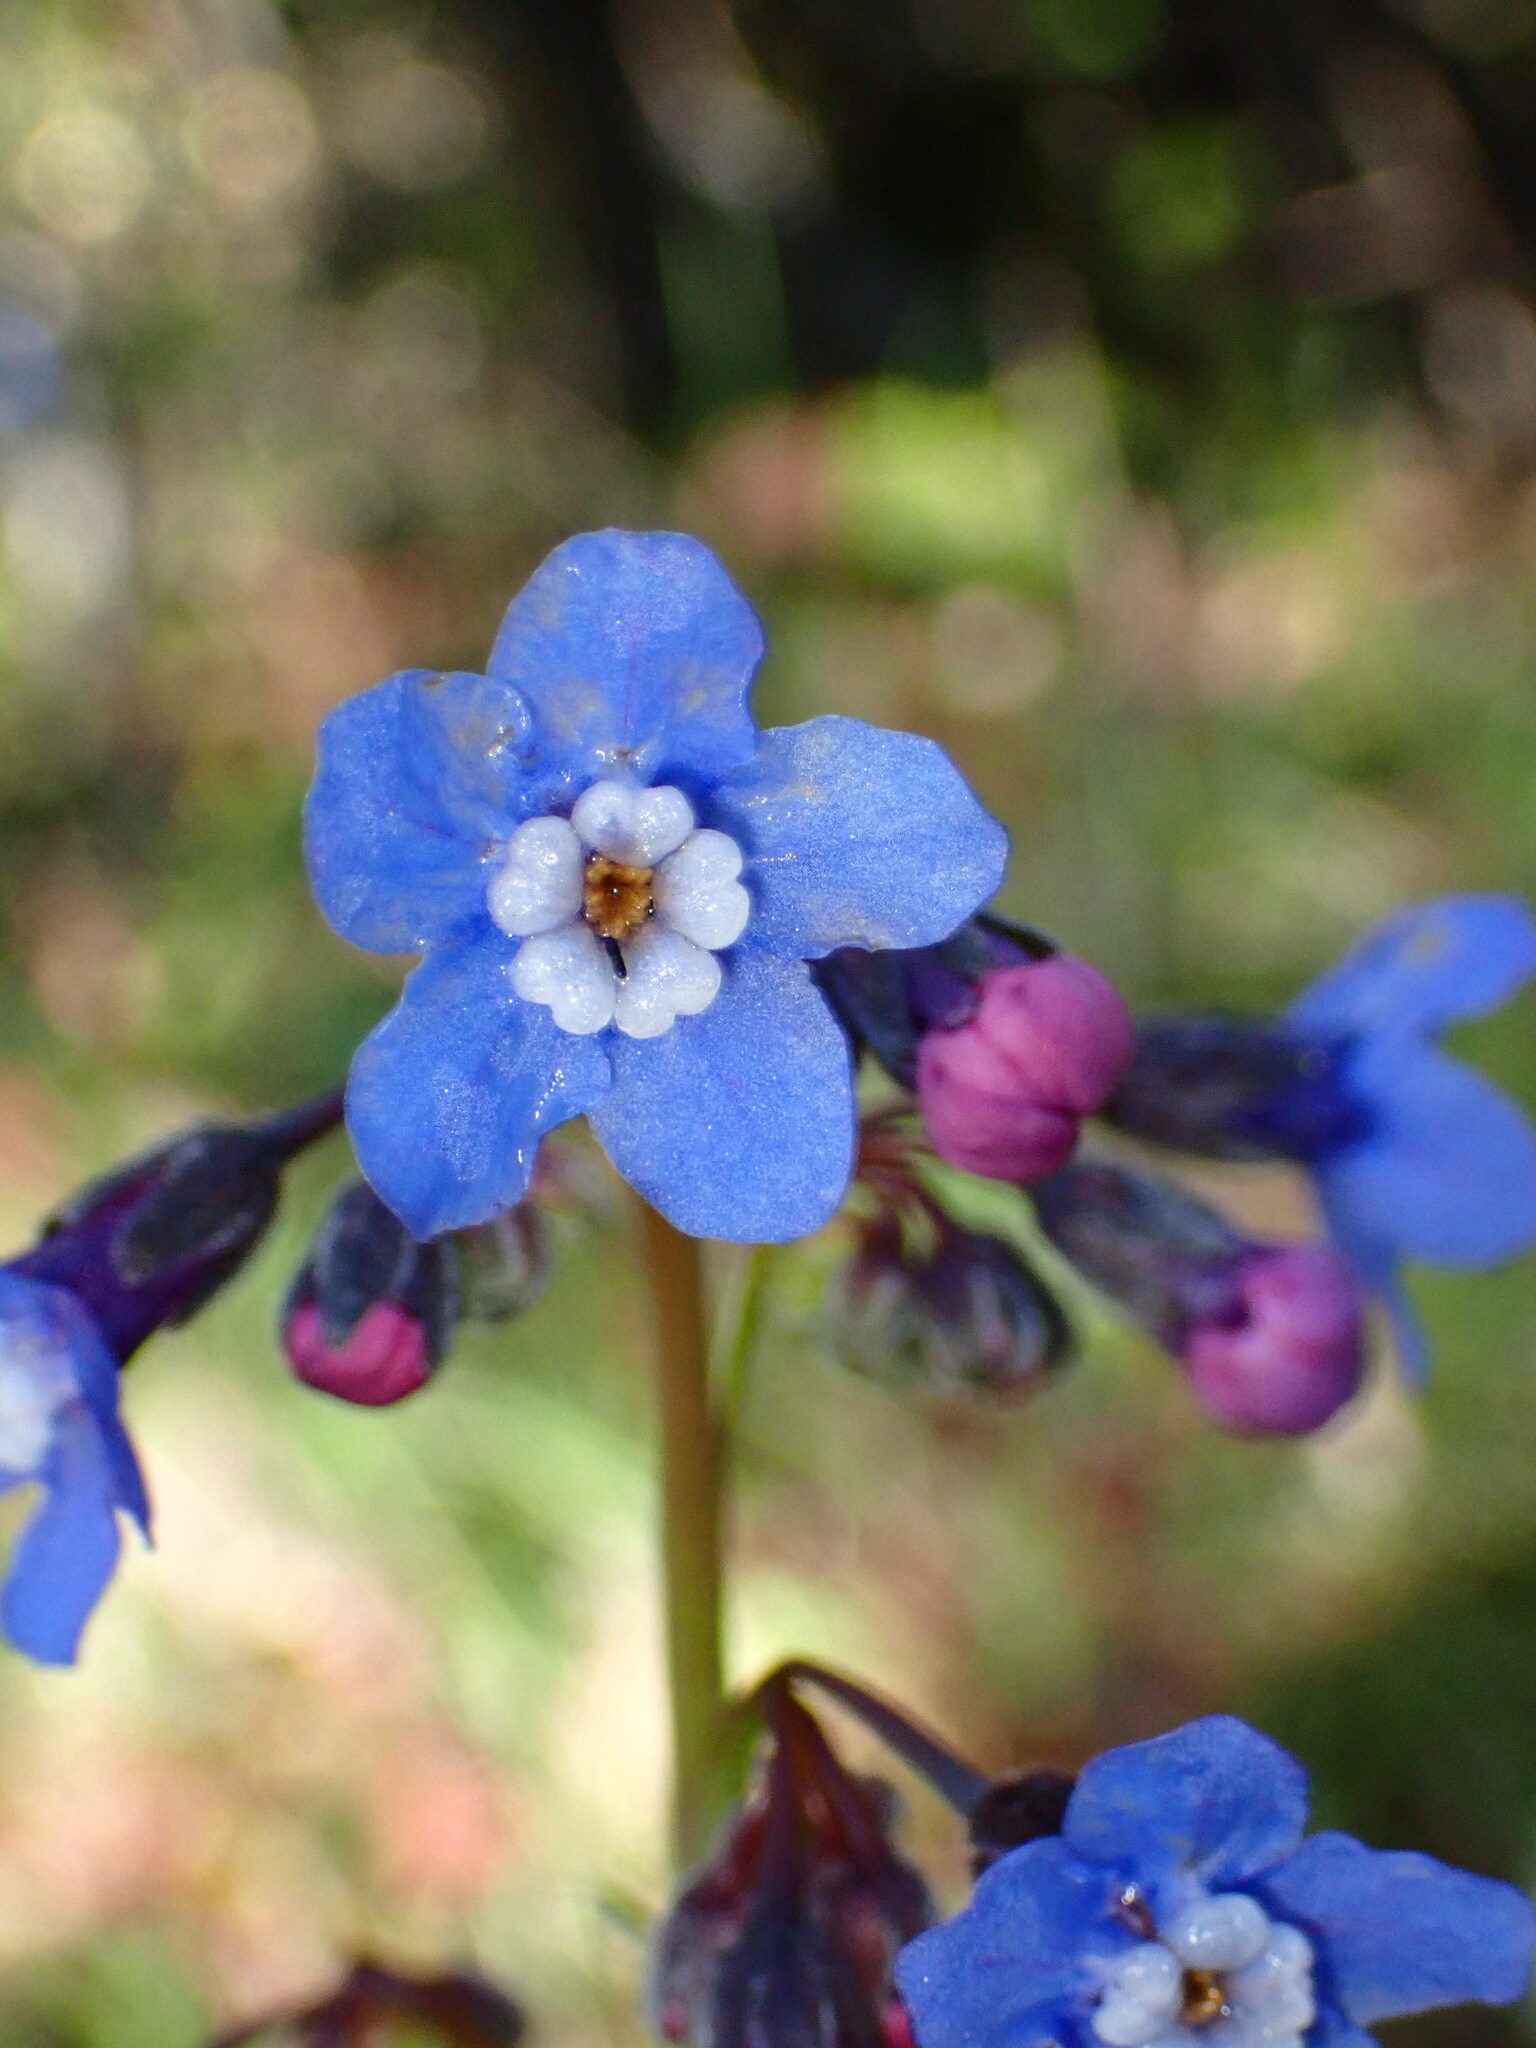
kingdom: Plantae
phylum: Tracheophyta
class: Magnoliopsida
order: Boraginales
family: Boraginaceae
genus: Adelinia
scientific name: Adelinia grande
